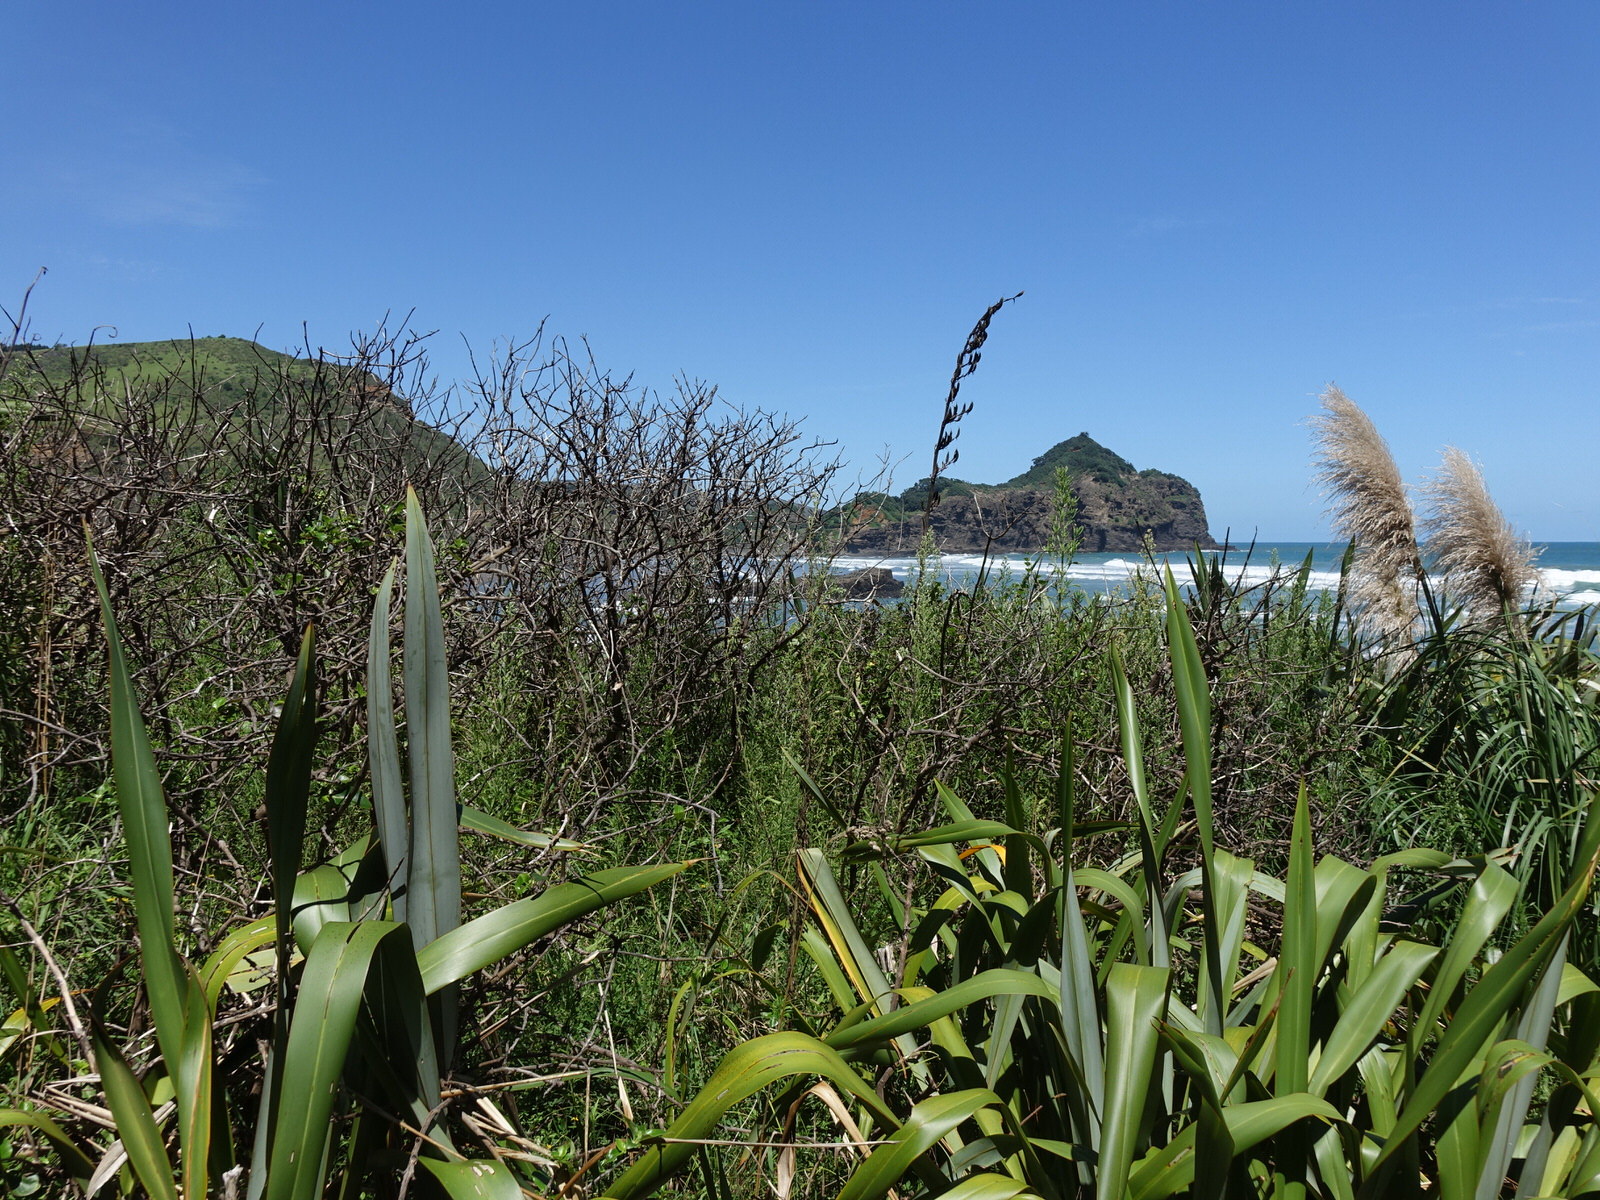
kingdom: Animalia
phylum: Chordata
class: Aves
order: Passeriformes
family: Acanthizidae
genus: Gerygone
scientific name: Gerygone igata
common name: Grey gerygone
